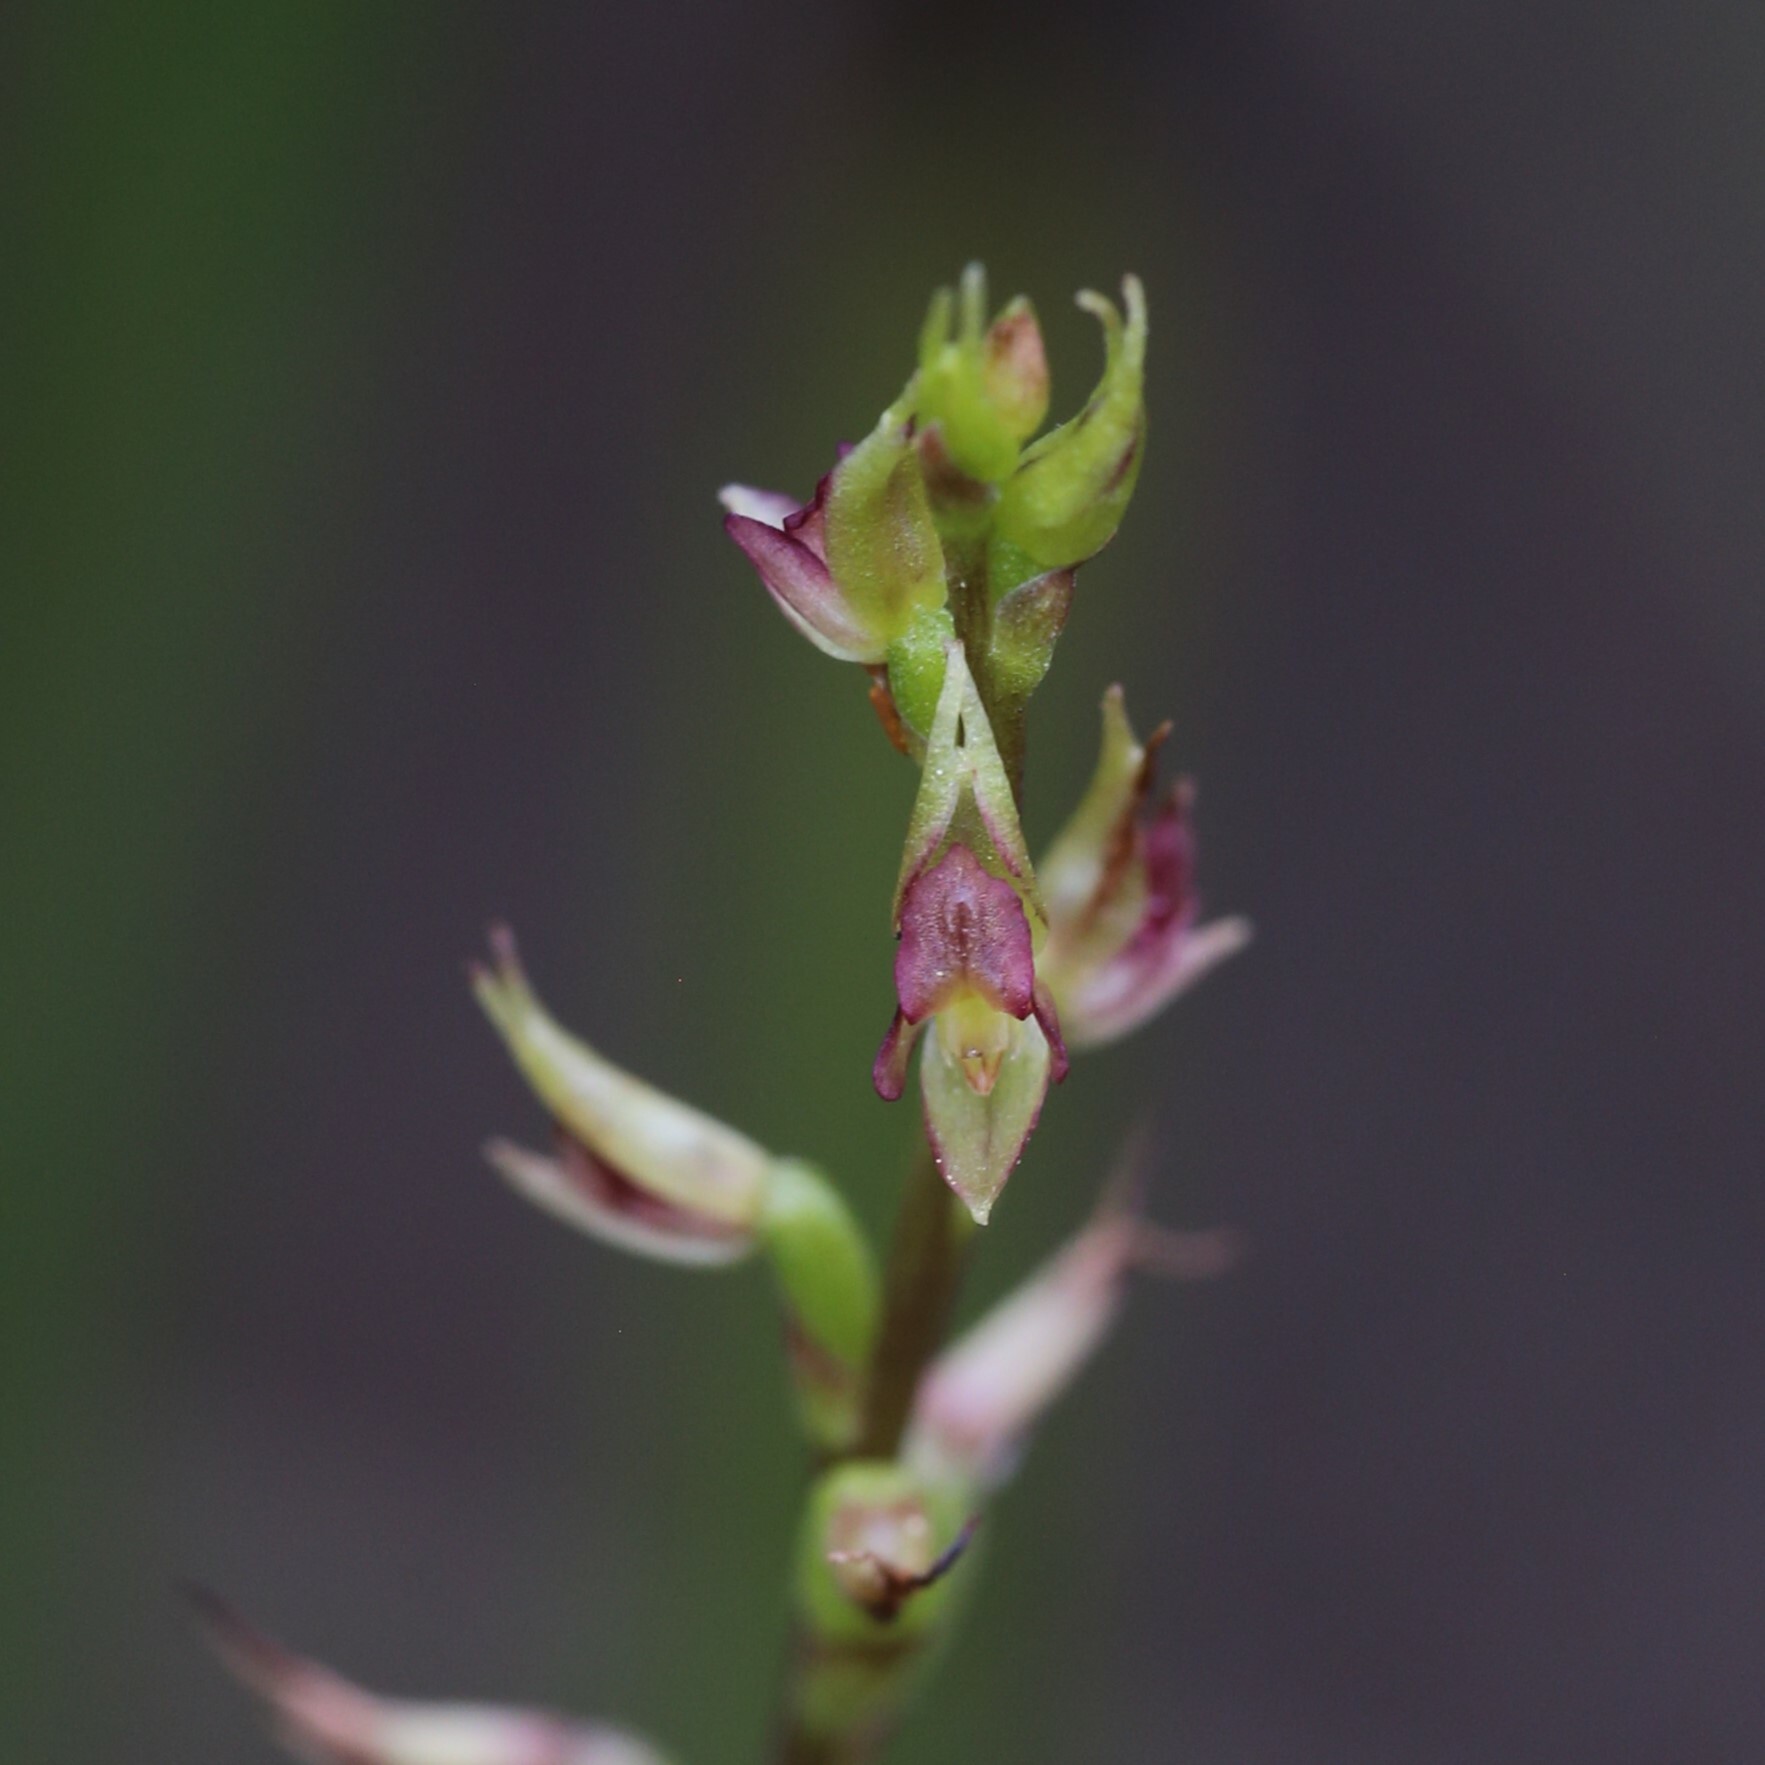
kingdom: Plantae
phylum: Tracheophyta
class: Liliopsida
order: Asparagales
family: Orchidaceae
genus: Prasophyllum
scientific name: Prasophyllum macrostachyum
